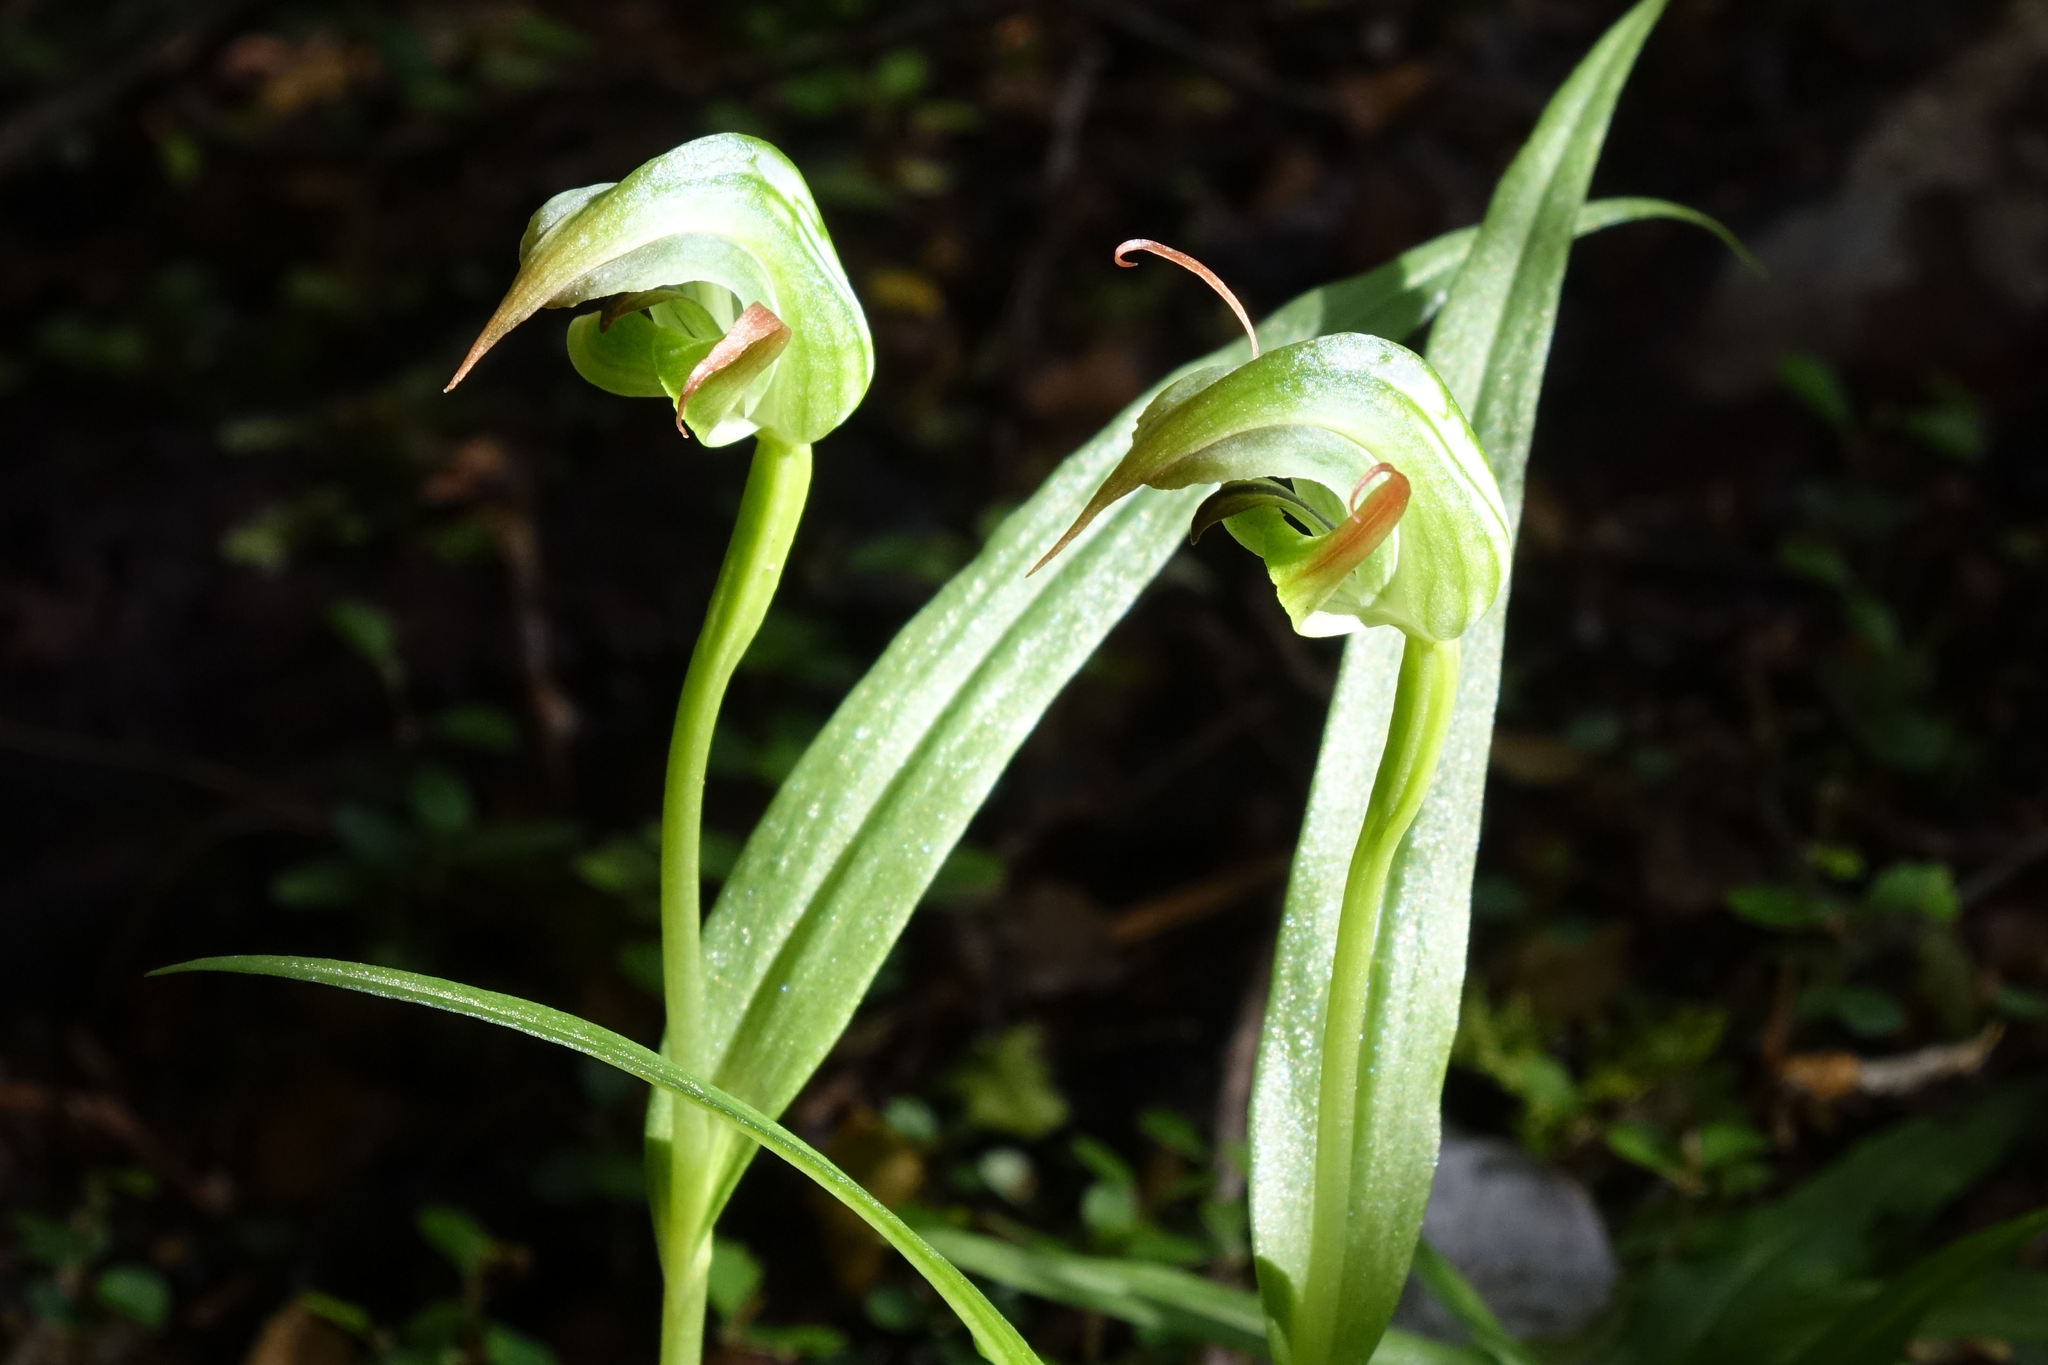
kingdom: Plantae
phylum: Tracheophyta
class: Liliopsida
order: Asparagales
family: Orchidaceae
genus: Pterostylis
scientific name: Pterostylis montana
